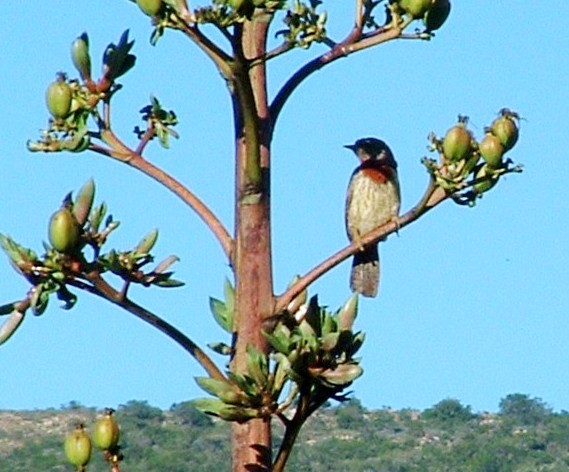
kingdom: Animalia
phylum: Chordata
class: Aves
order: Piciformes
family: Picidae
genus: Jynx
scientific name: Jynx ruficollis
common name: Red-throated wryneck
